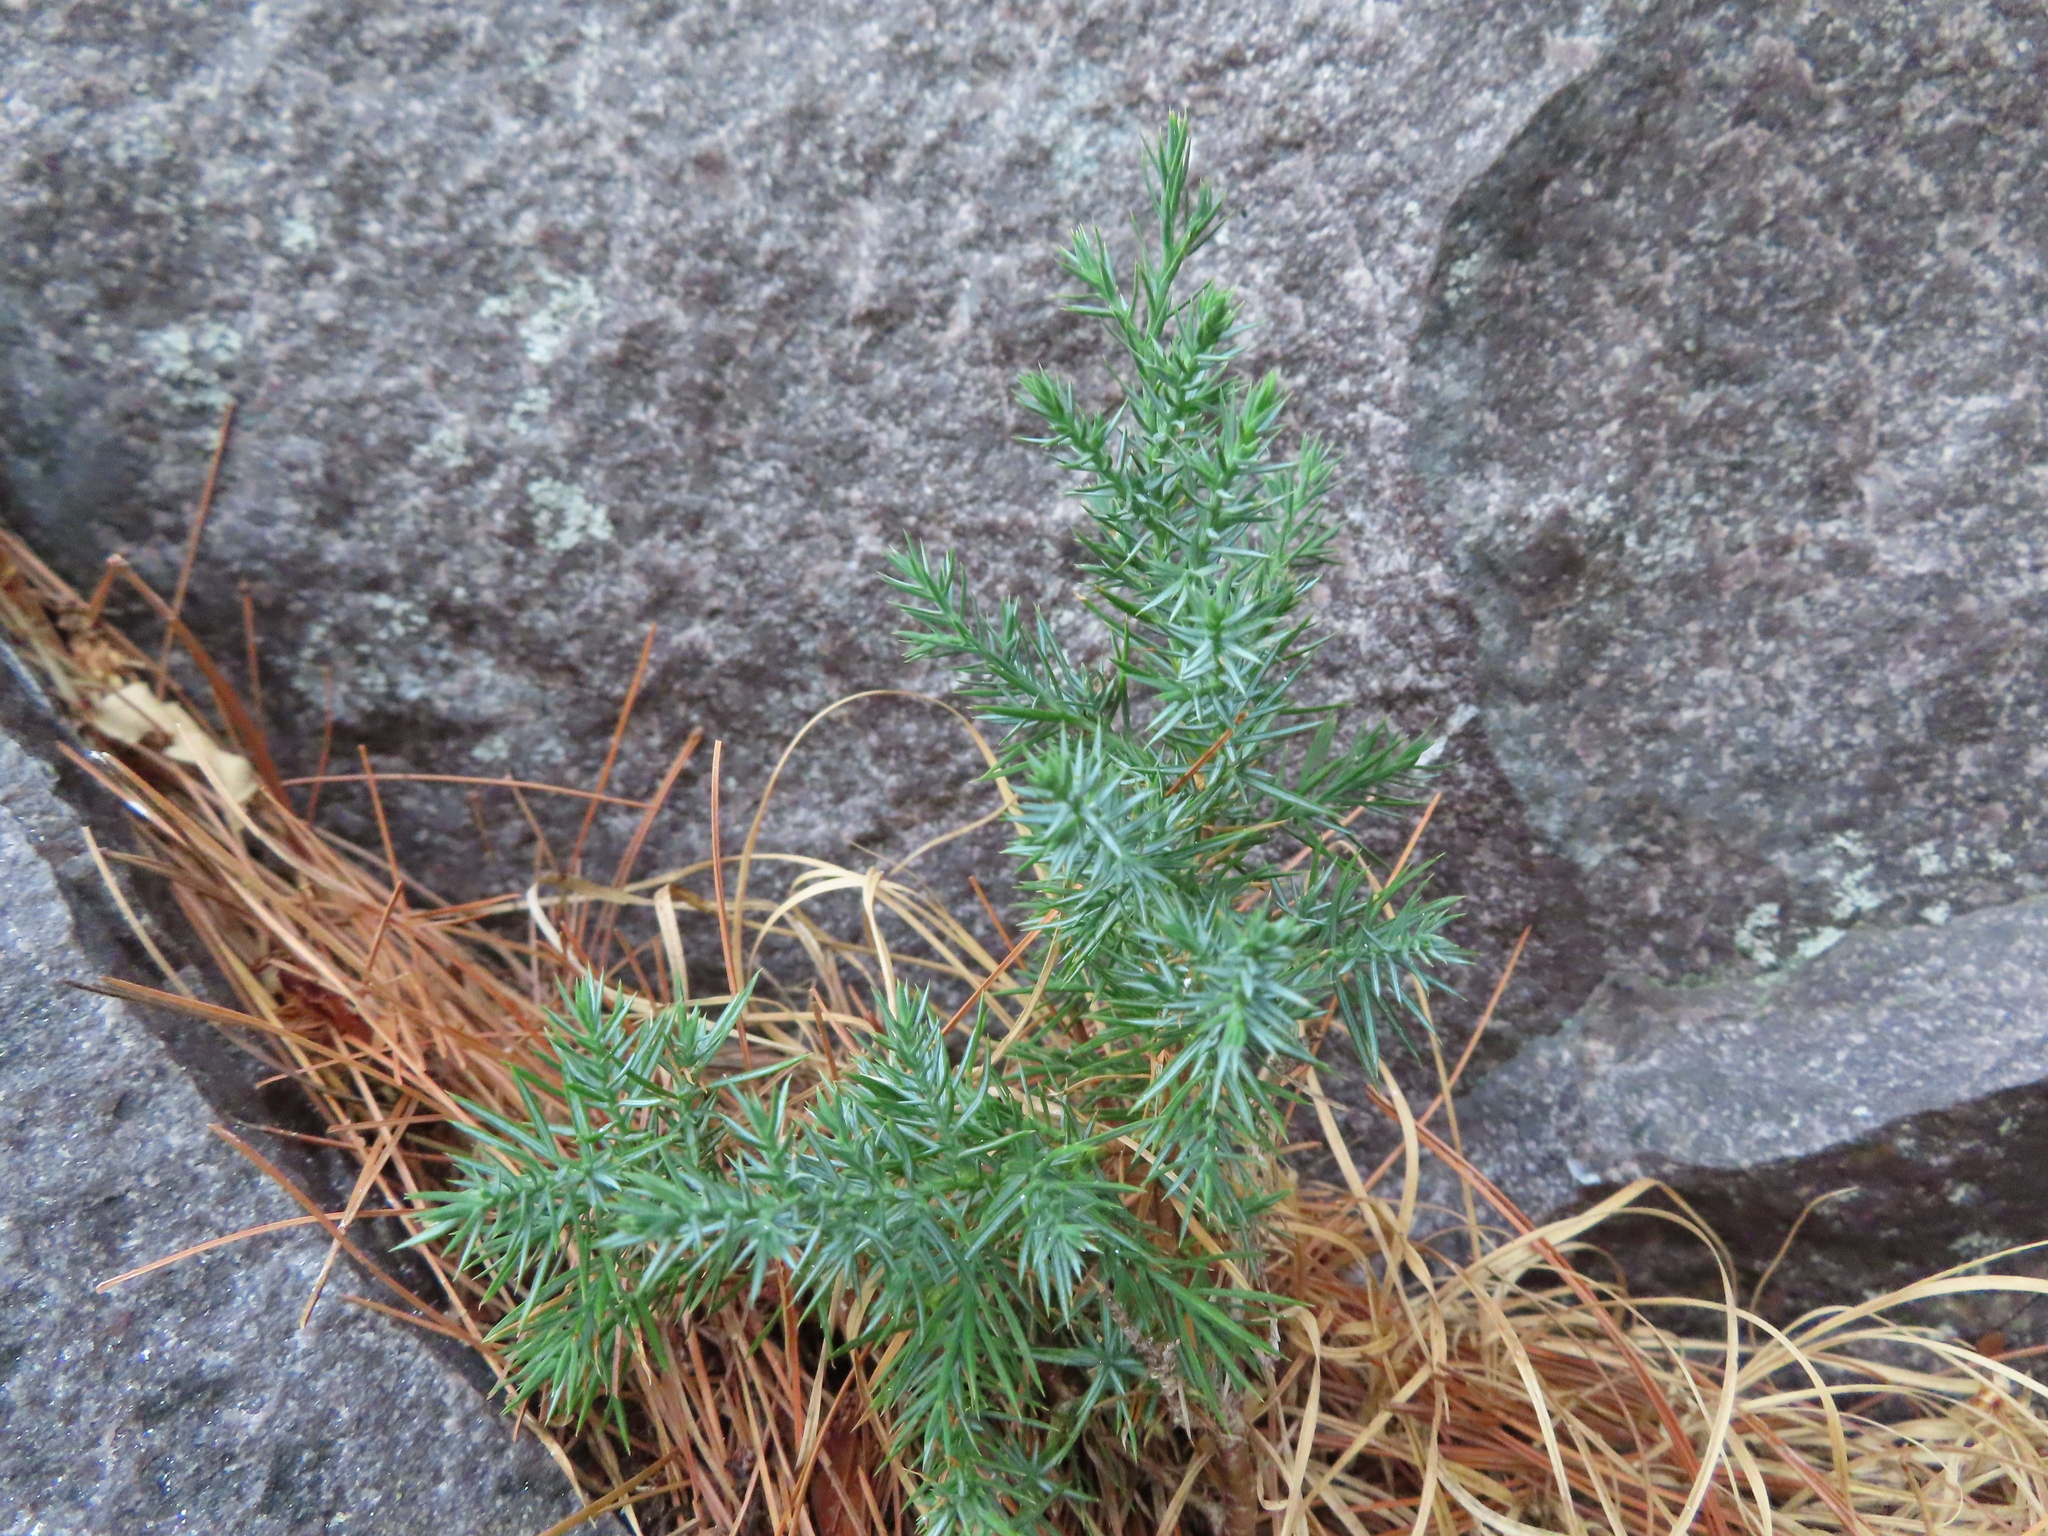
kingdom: Plantae
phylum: Tracheophyta
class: Pinopsida
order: Pinales
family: Cupressaceae
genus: Juniperus
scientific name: Juniperus virginiana
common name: Red juniper
